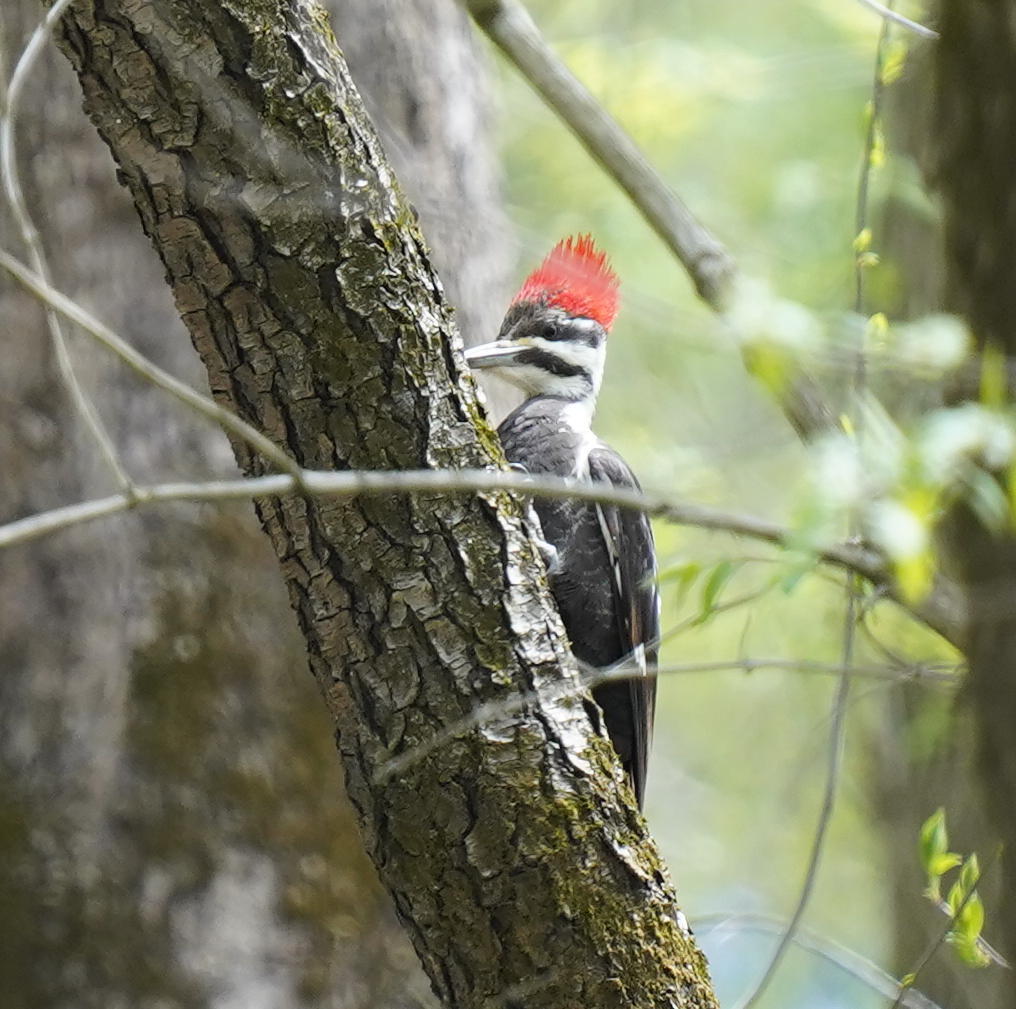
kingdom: Animalia
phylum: Chordata
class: Aves
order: Piciformes
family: Picidae
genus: Dryocopus
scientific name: Dryocopus pileatus
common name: Pileated woodpecker
